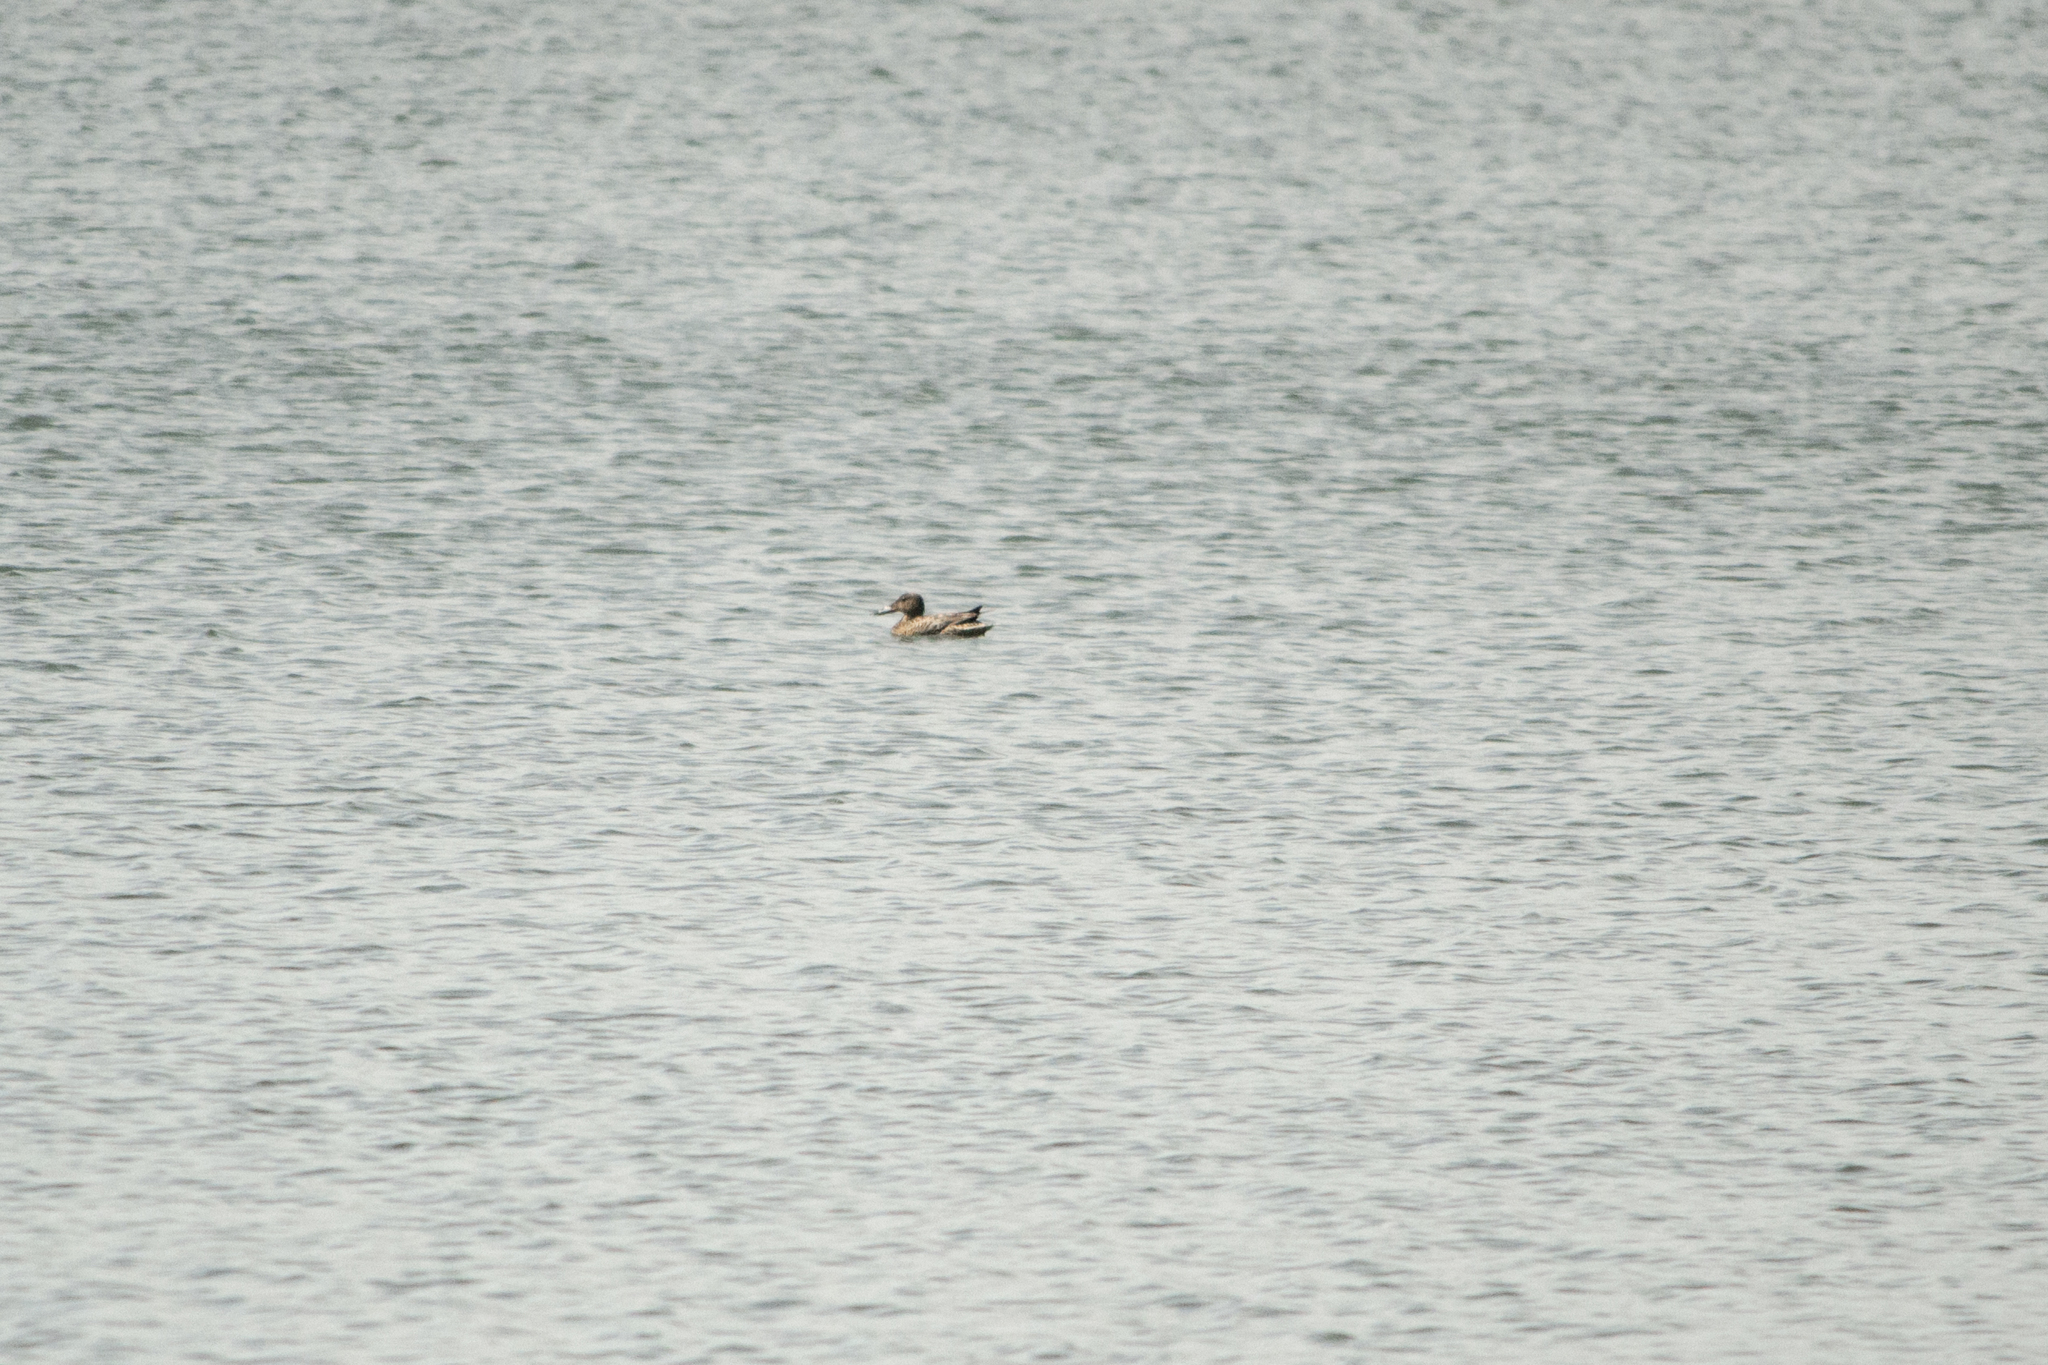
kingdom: Animalia
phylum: Chordata
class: Aves
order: Anseriformes
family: Anatidae
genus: Spatula
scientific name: Spatula clypeata
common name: Northern shoveler
